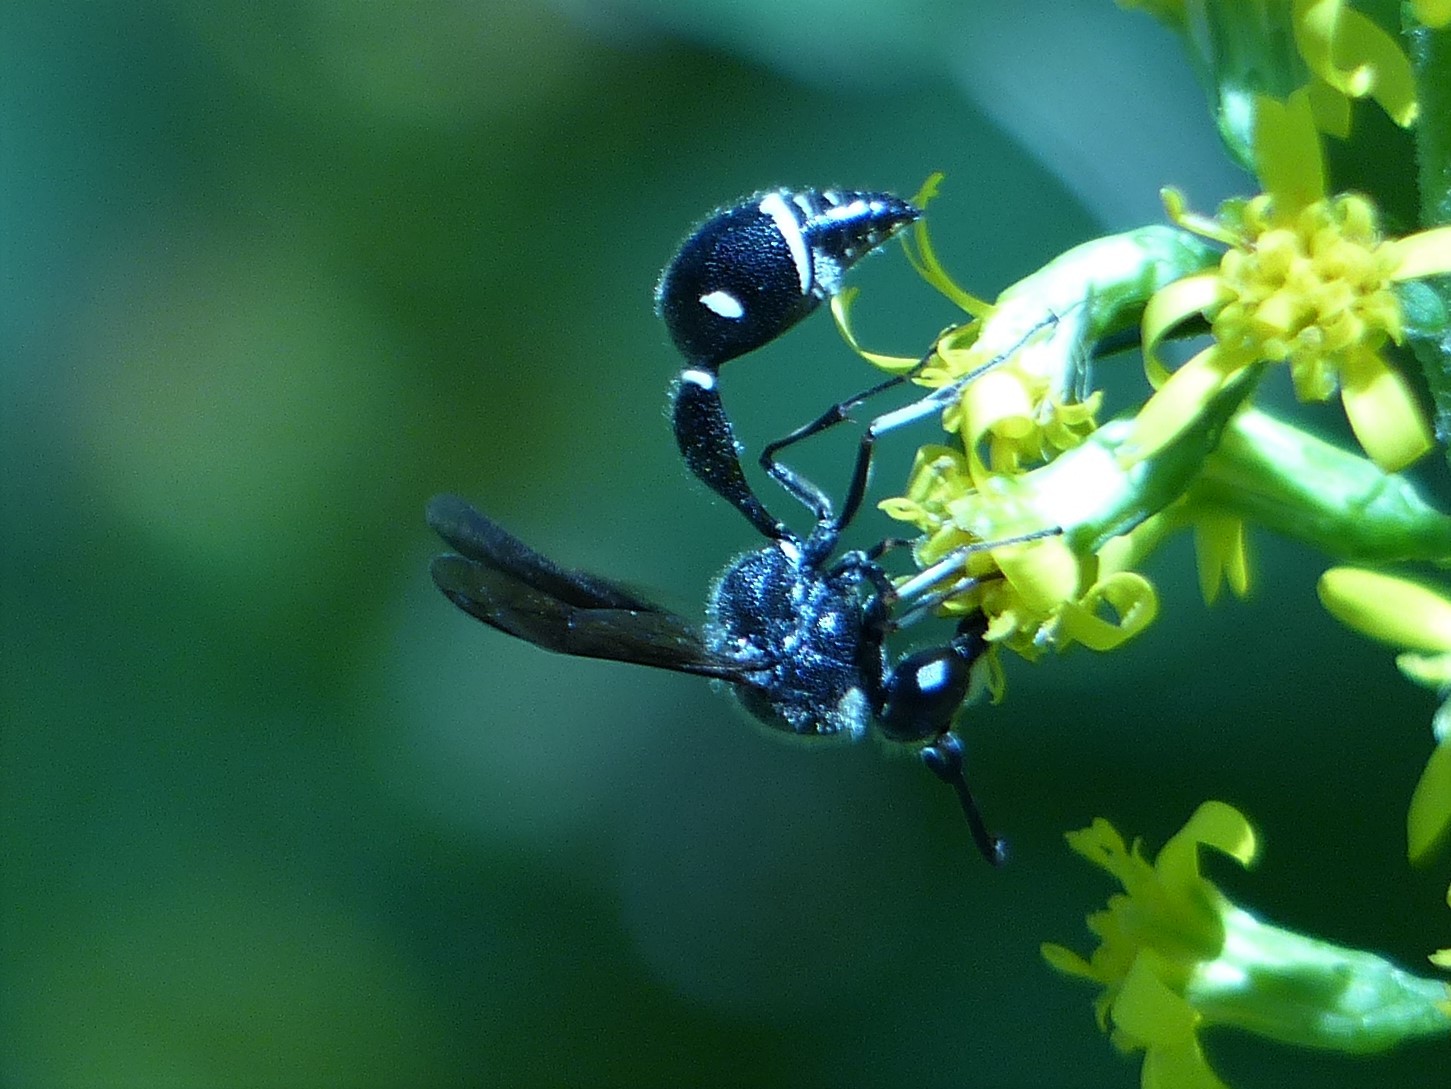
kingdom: Animalia
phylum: Arthropoda
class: Insecta
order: Hymenoptera
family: Vespidae
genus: Eumenes
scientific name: Eumenes fraternus
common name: Fraternal potter wasp
